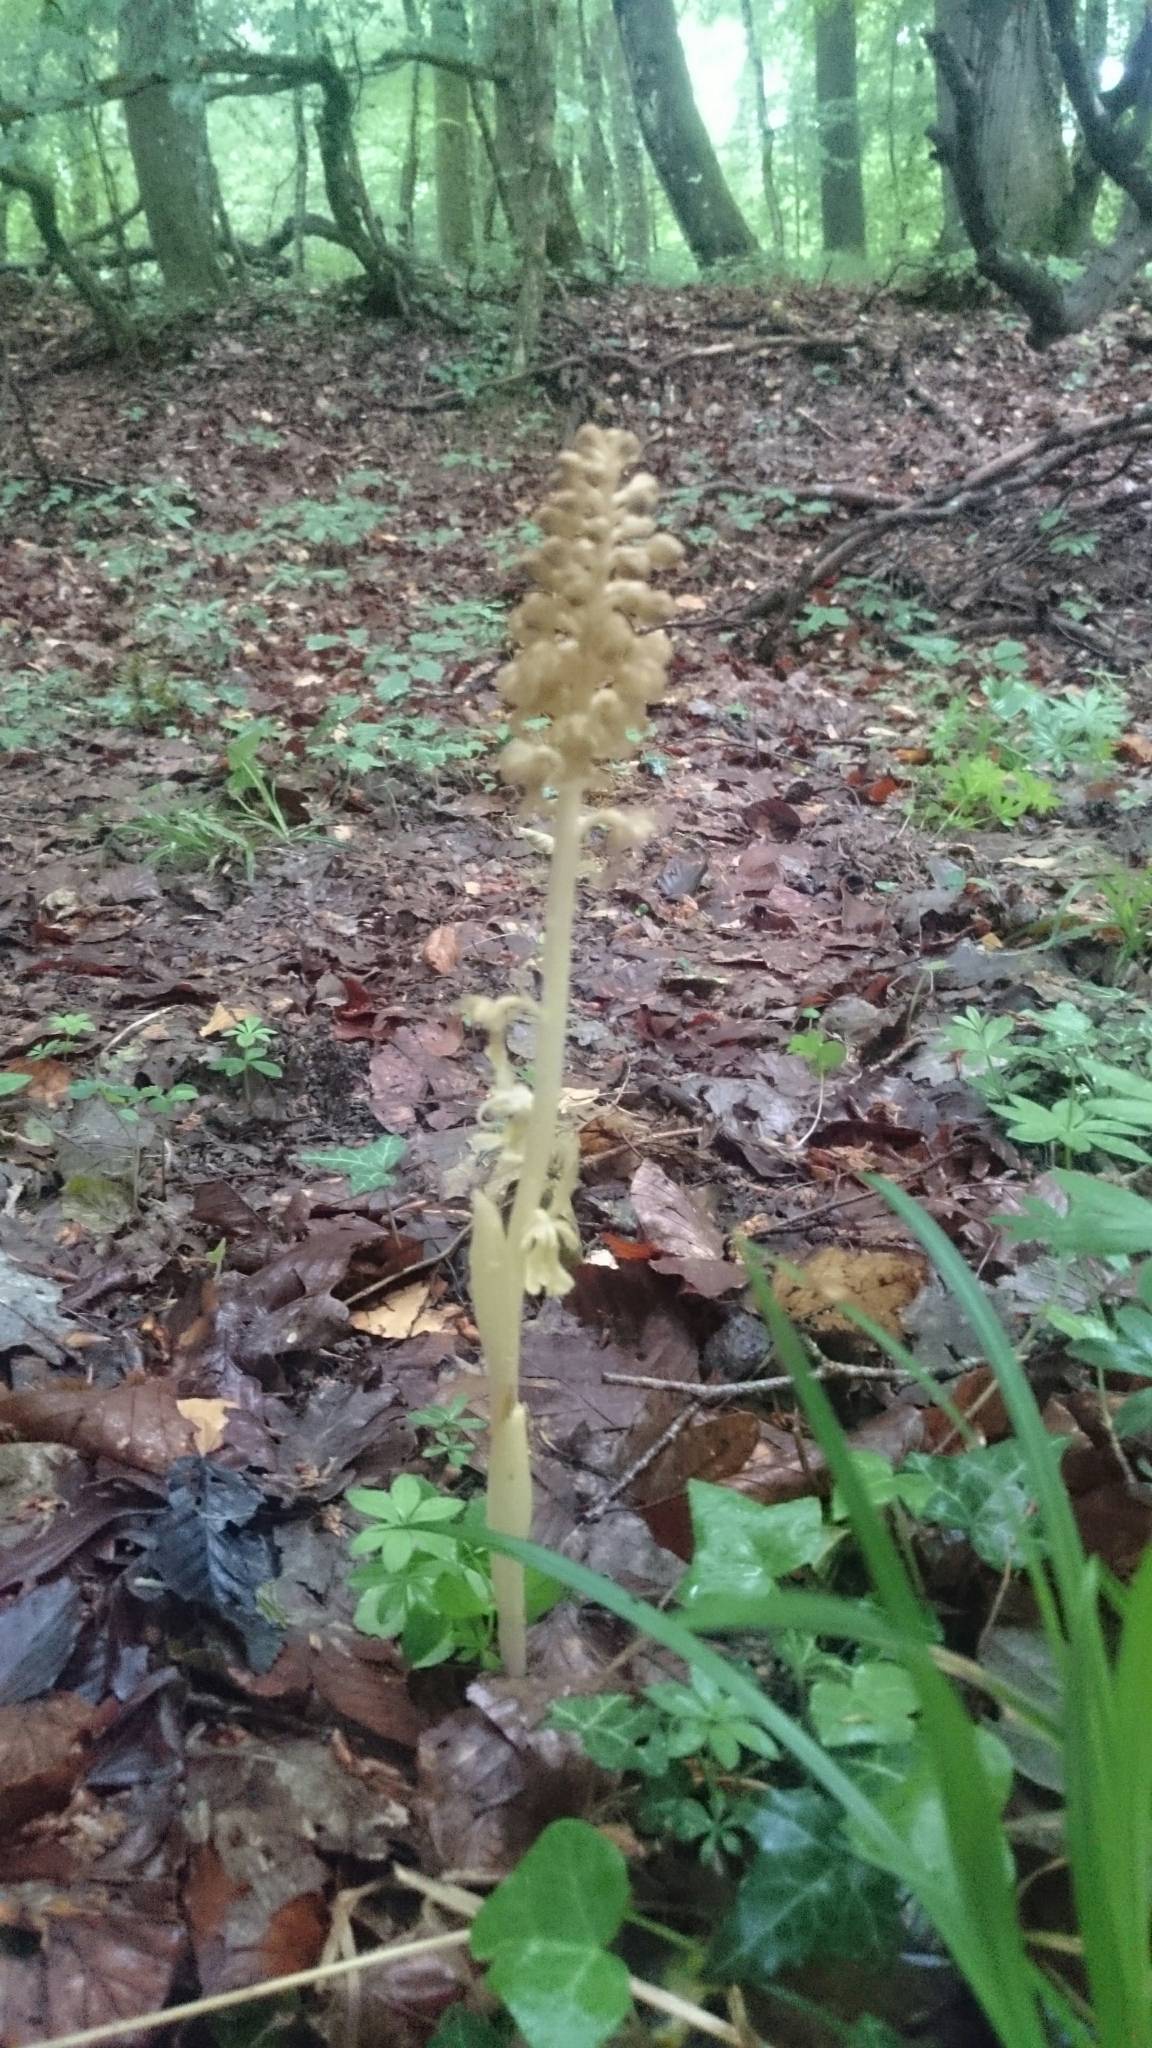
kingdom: Plantae
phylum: Tracheophyta
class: Liliopsida
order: Asparagales
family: Orchidaceae
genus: Neottia
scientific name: Neottia nidus-avis
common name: Bird's-nest orchid
